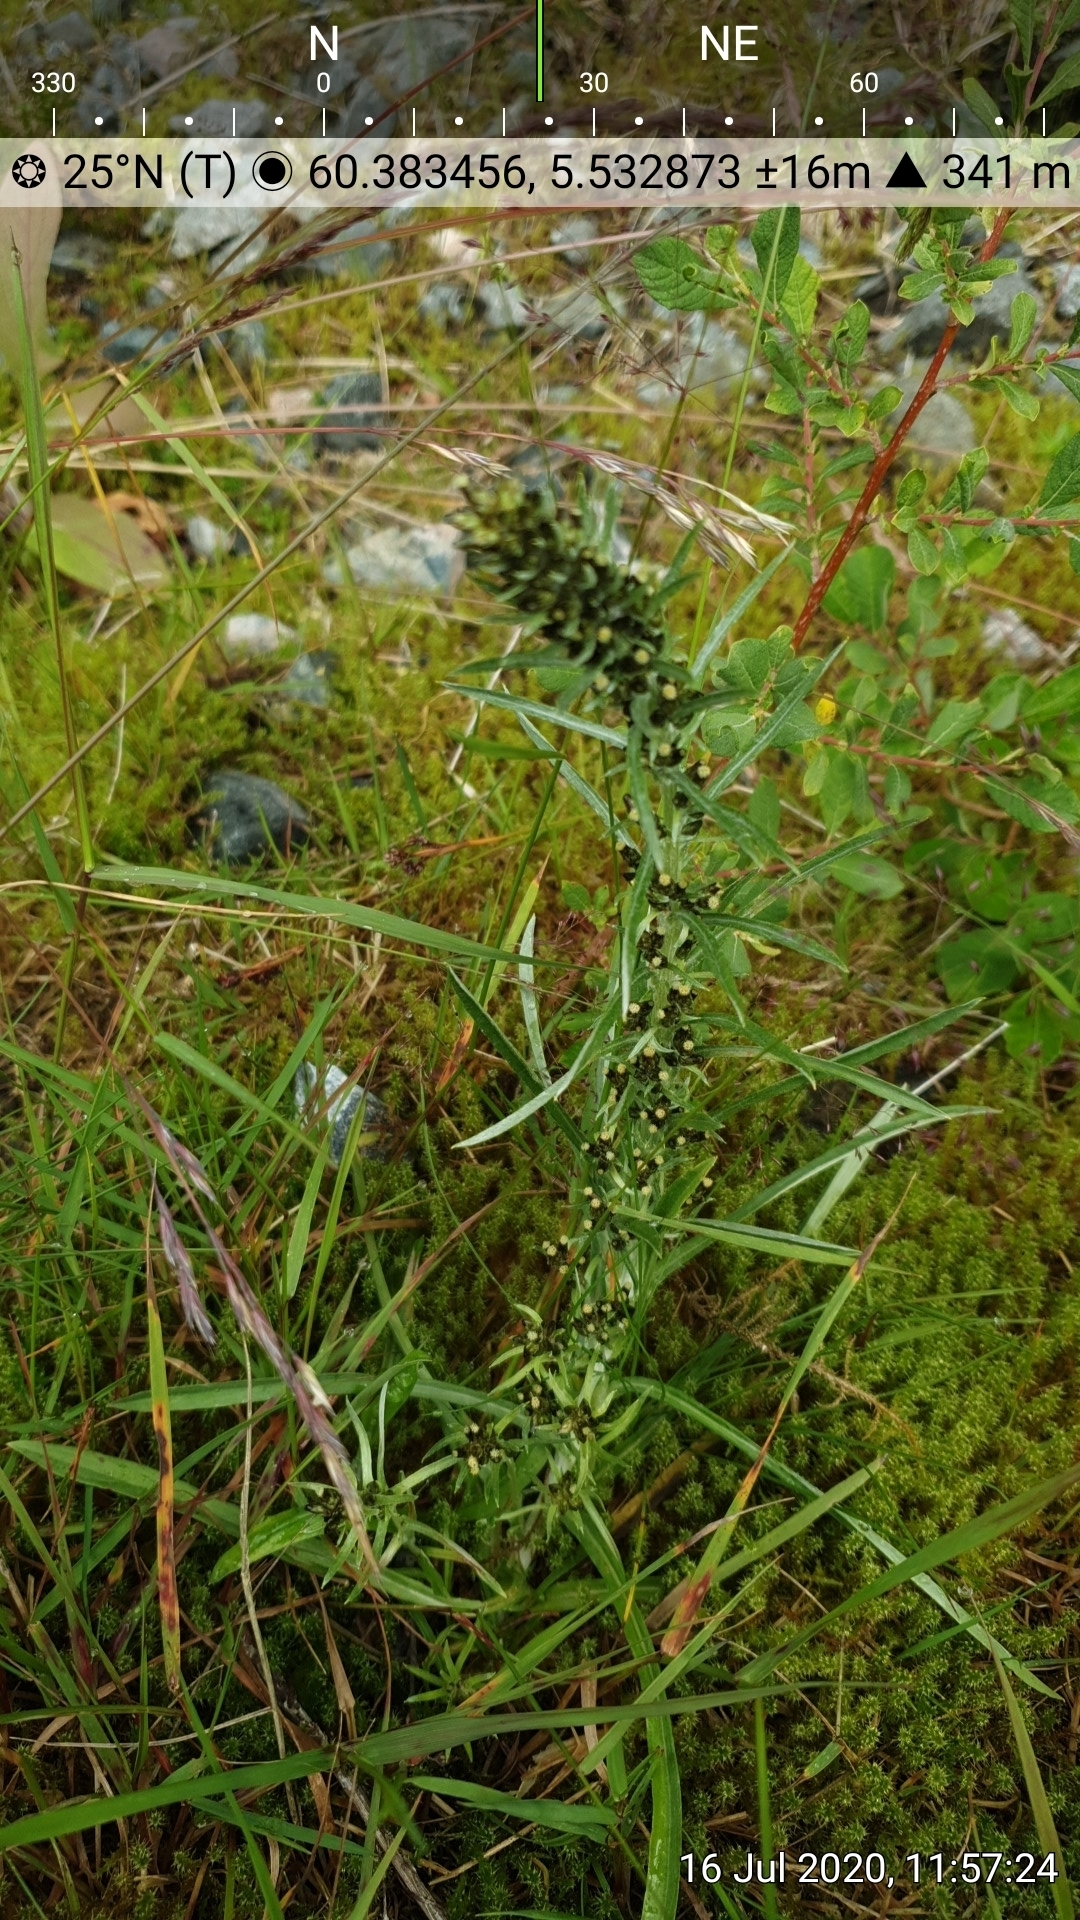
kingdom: Plantae
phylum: Tracheophyta
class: Magnoliopsida
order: Asterales
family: Asteraceae
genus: Omalotheca
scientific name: Omalotheca sylvatica
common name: Heath cudweed
